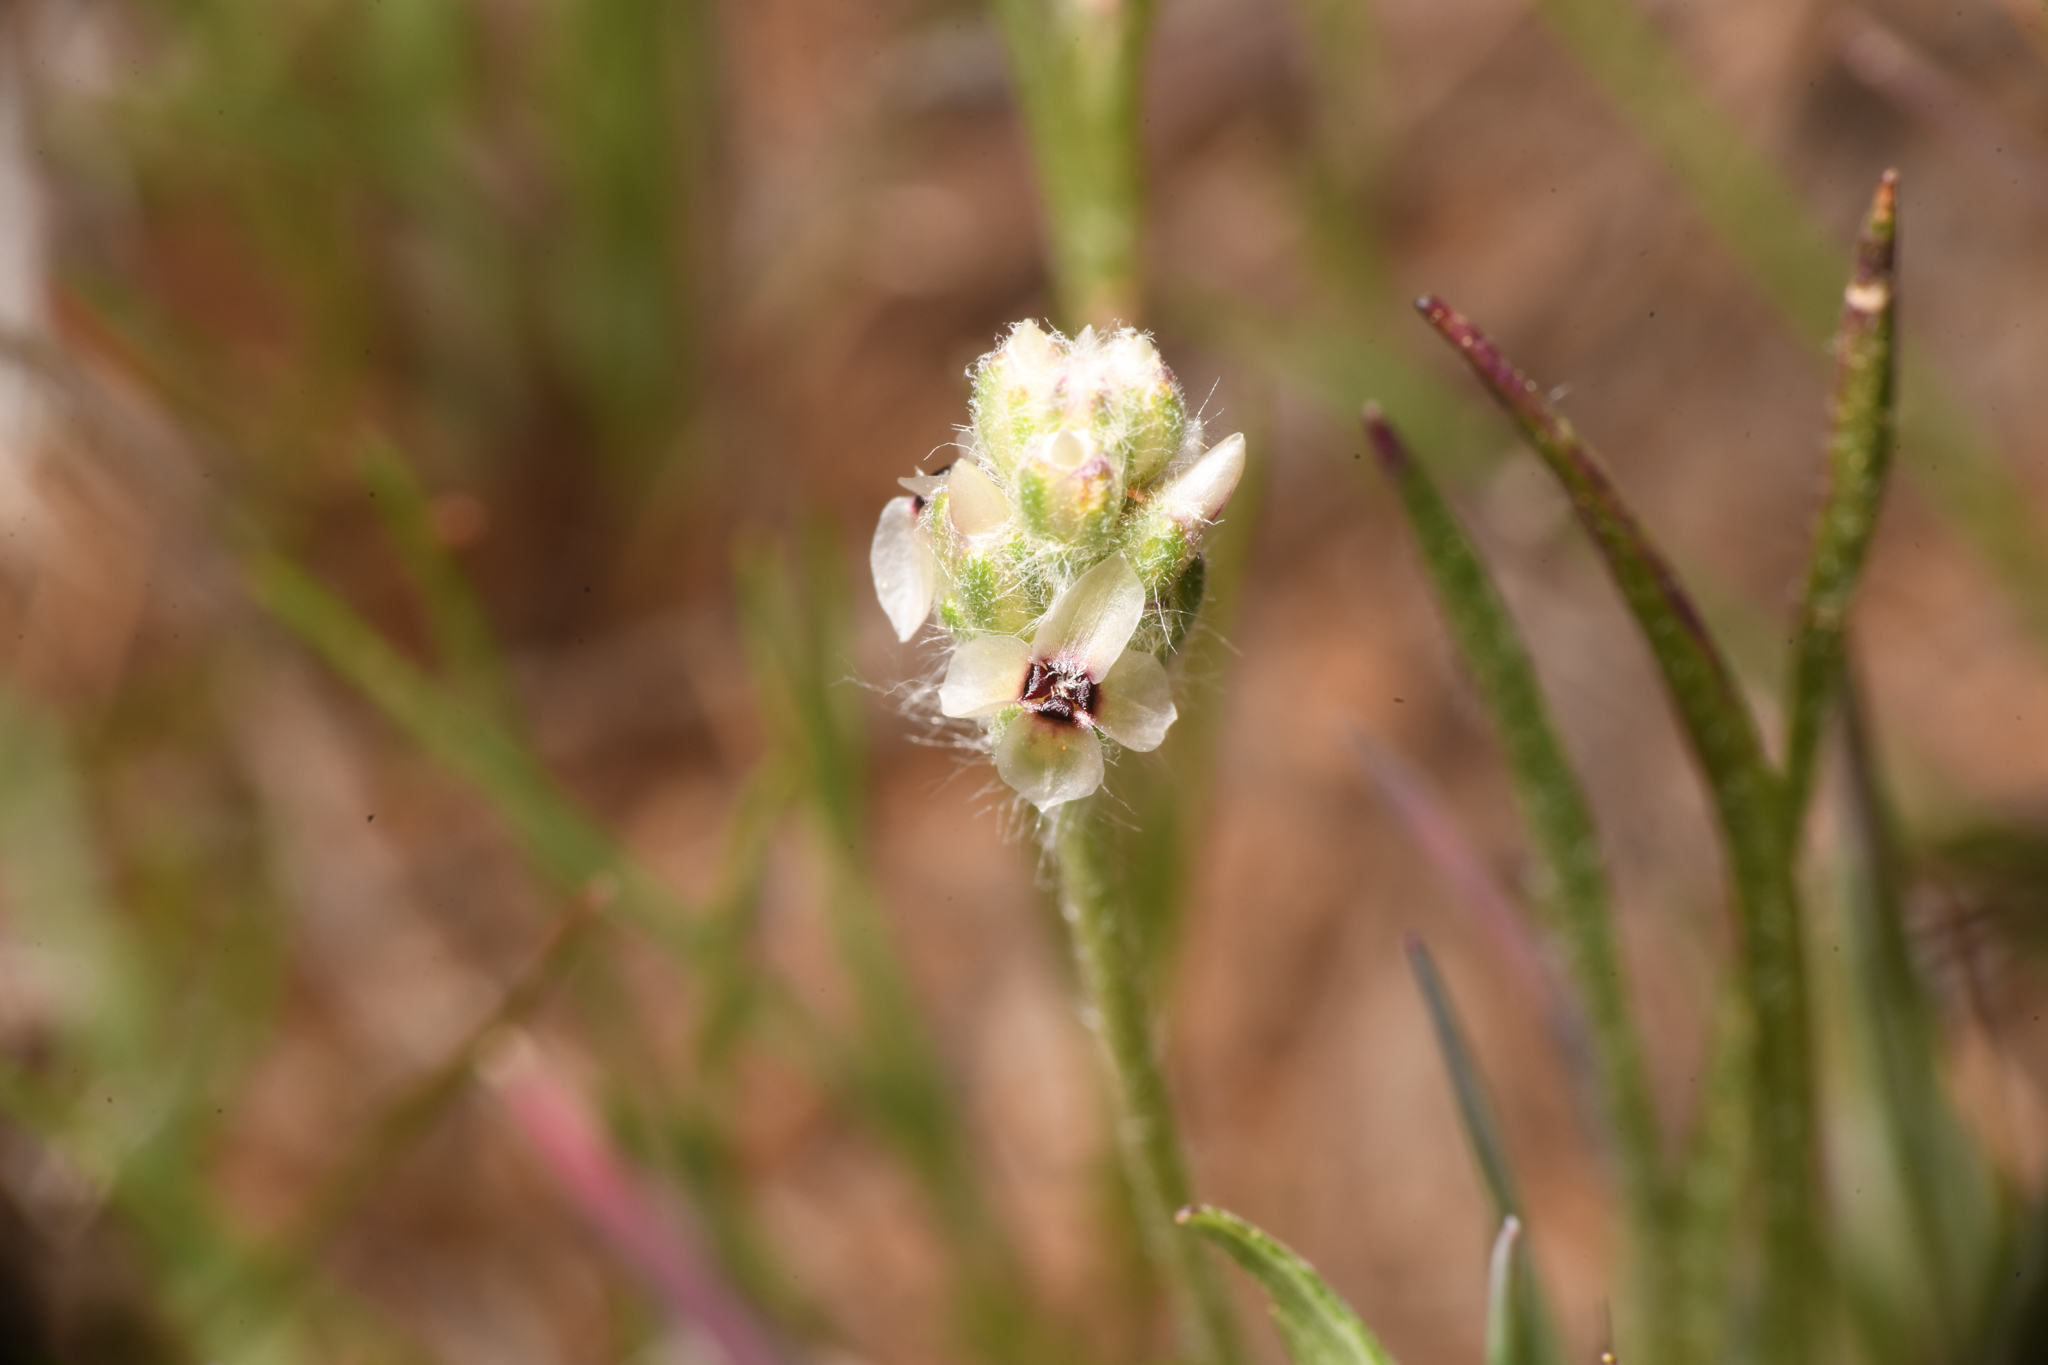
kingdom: Plantae
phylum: Tracheophyta
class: Magnoliopsida
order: Lamiales
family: Plantaginaceae
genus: Plantago
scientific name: Plantago erecta
